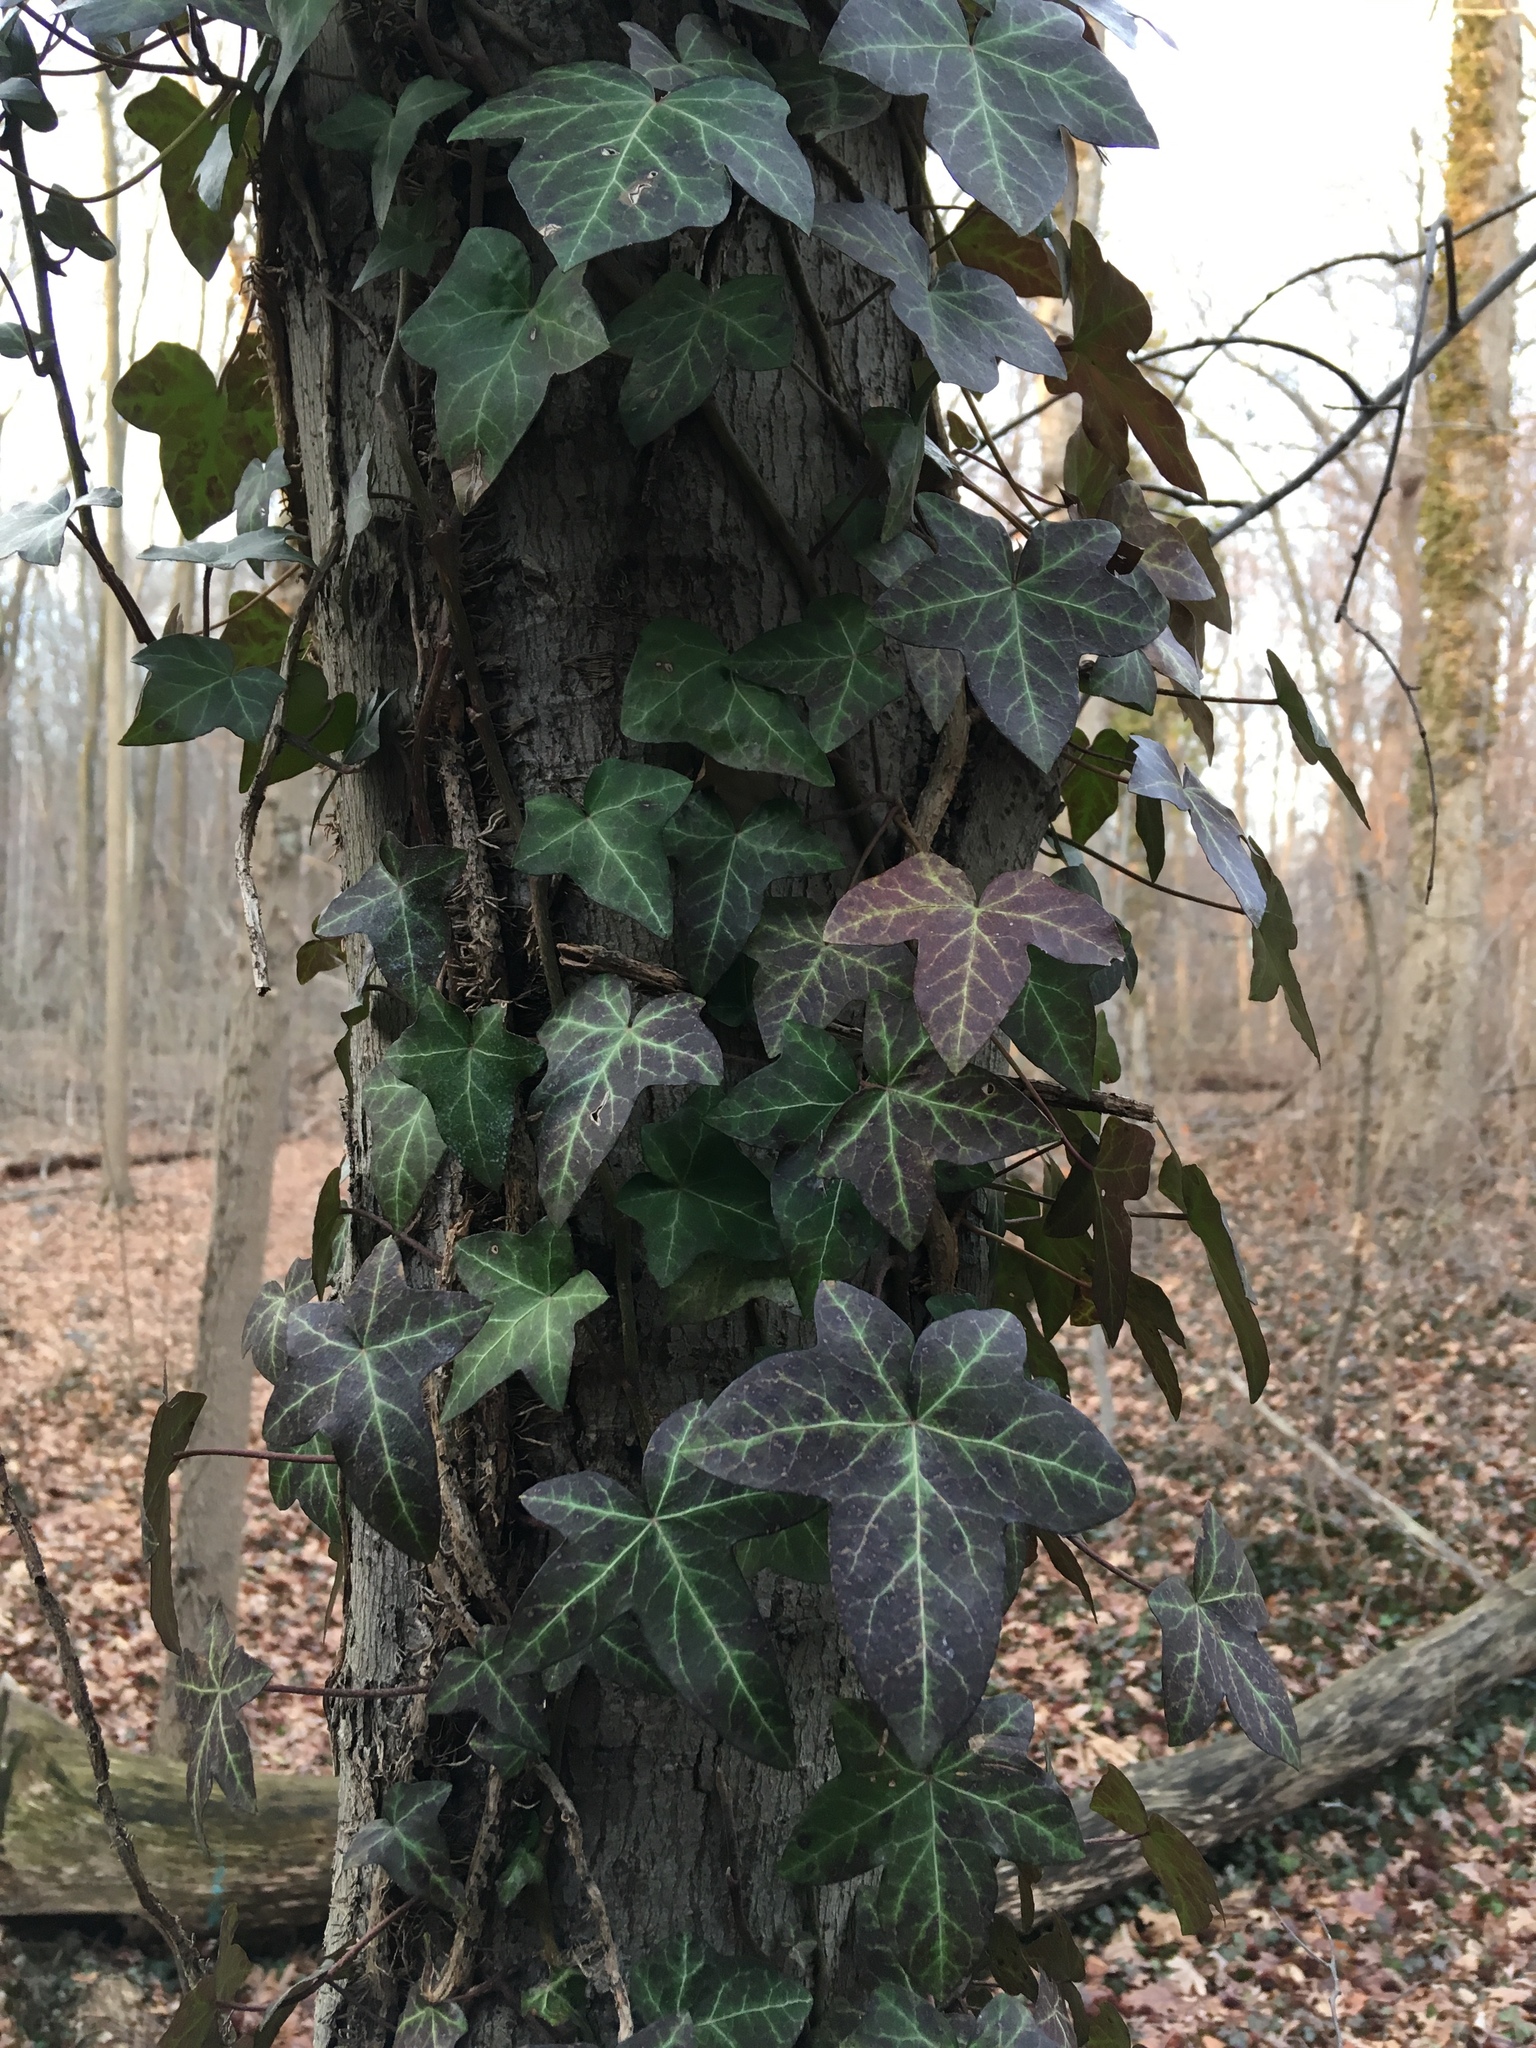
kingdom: Plantae
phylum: Tracheophyta
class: Magnoliopsida
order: Apiales
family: Araliaceae
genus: Hedera
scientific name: Hedera helix
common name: Ivy
